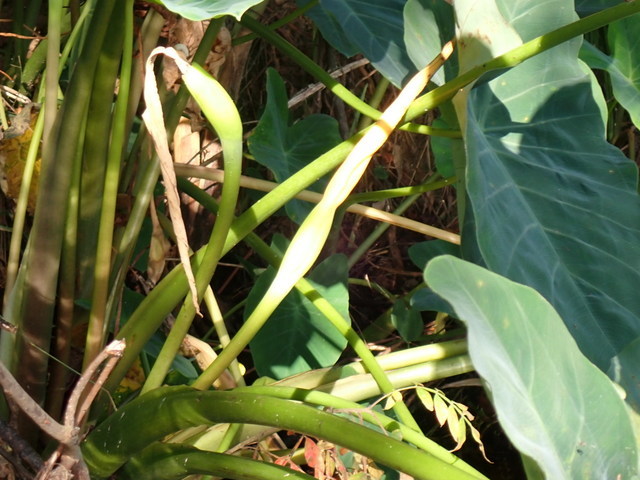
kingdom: Plantae
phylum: Tracheophyta
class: Liliopsida
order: Alismatales
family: Araceae
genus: Colocasia
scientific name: Colocasia esculenta
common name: Taro
